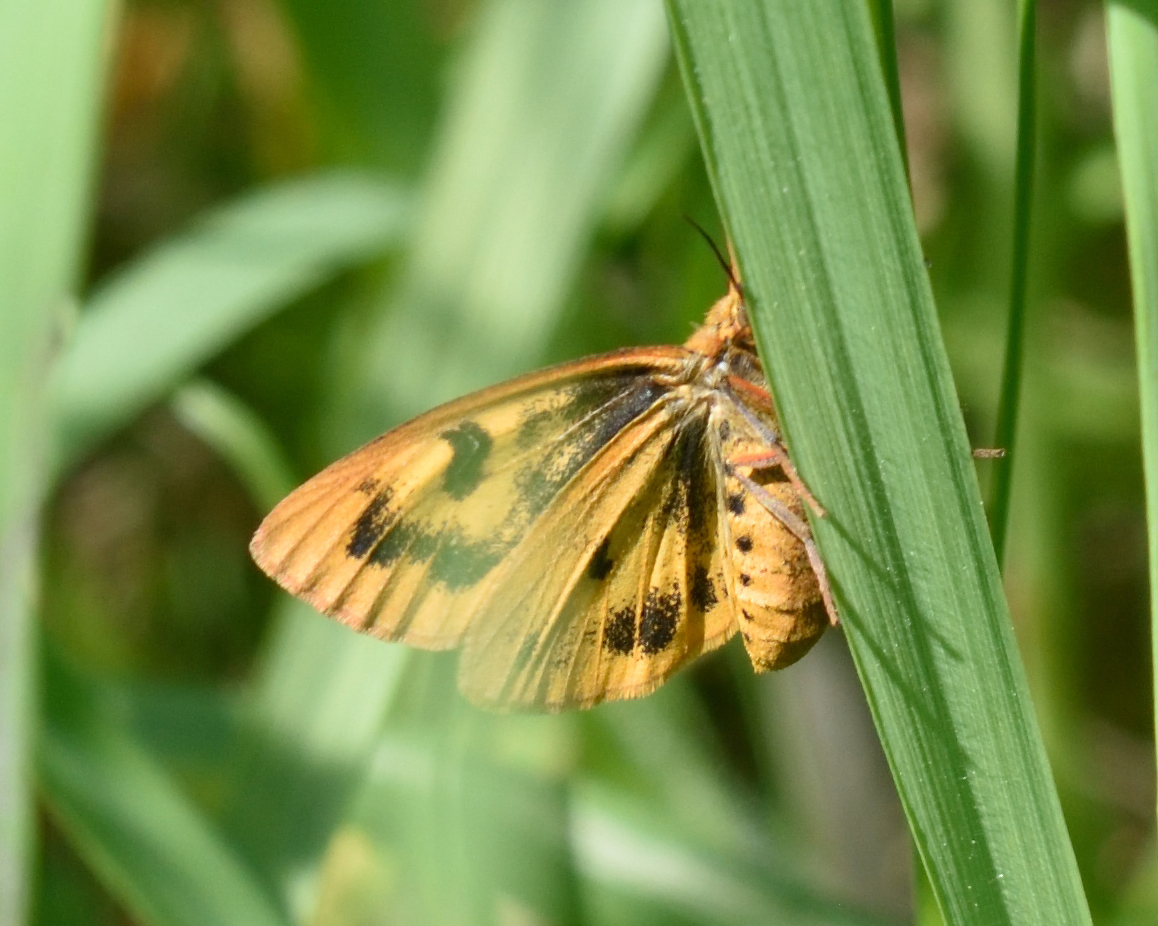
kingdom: Animalia
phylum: Arthropoda
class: Insecta
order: Lepidoptera
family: Erebidae
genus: Diacrisia
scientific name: Diacrisia sannio
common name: Clouded buff
